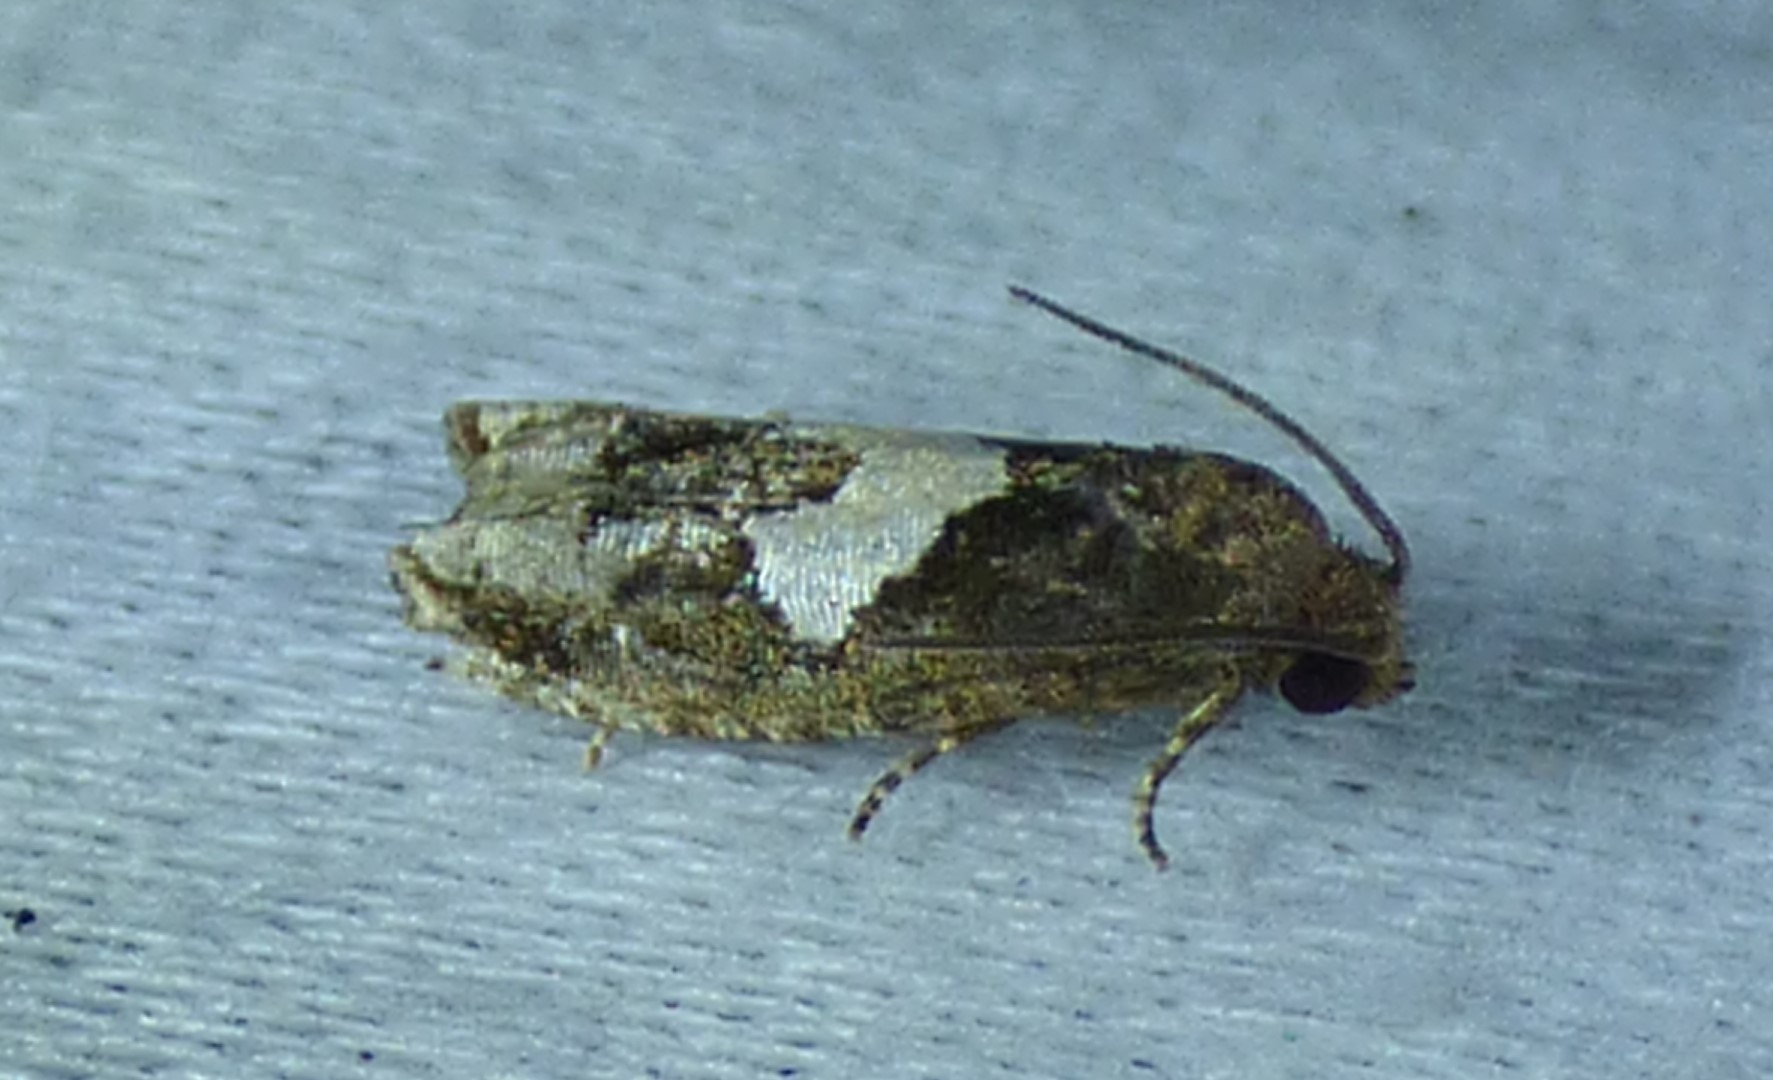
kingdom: Animalia
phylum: Arthropoda
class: Insecta
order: Lepidoptera
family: Tortricidae
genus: Epiblema
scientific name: Epiblema otiosana
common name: Bidens borer moth
